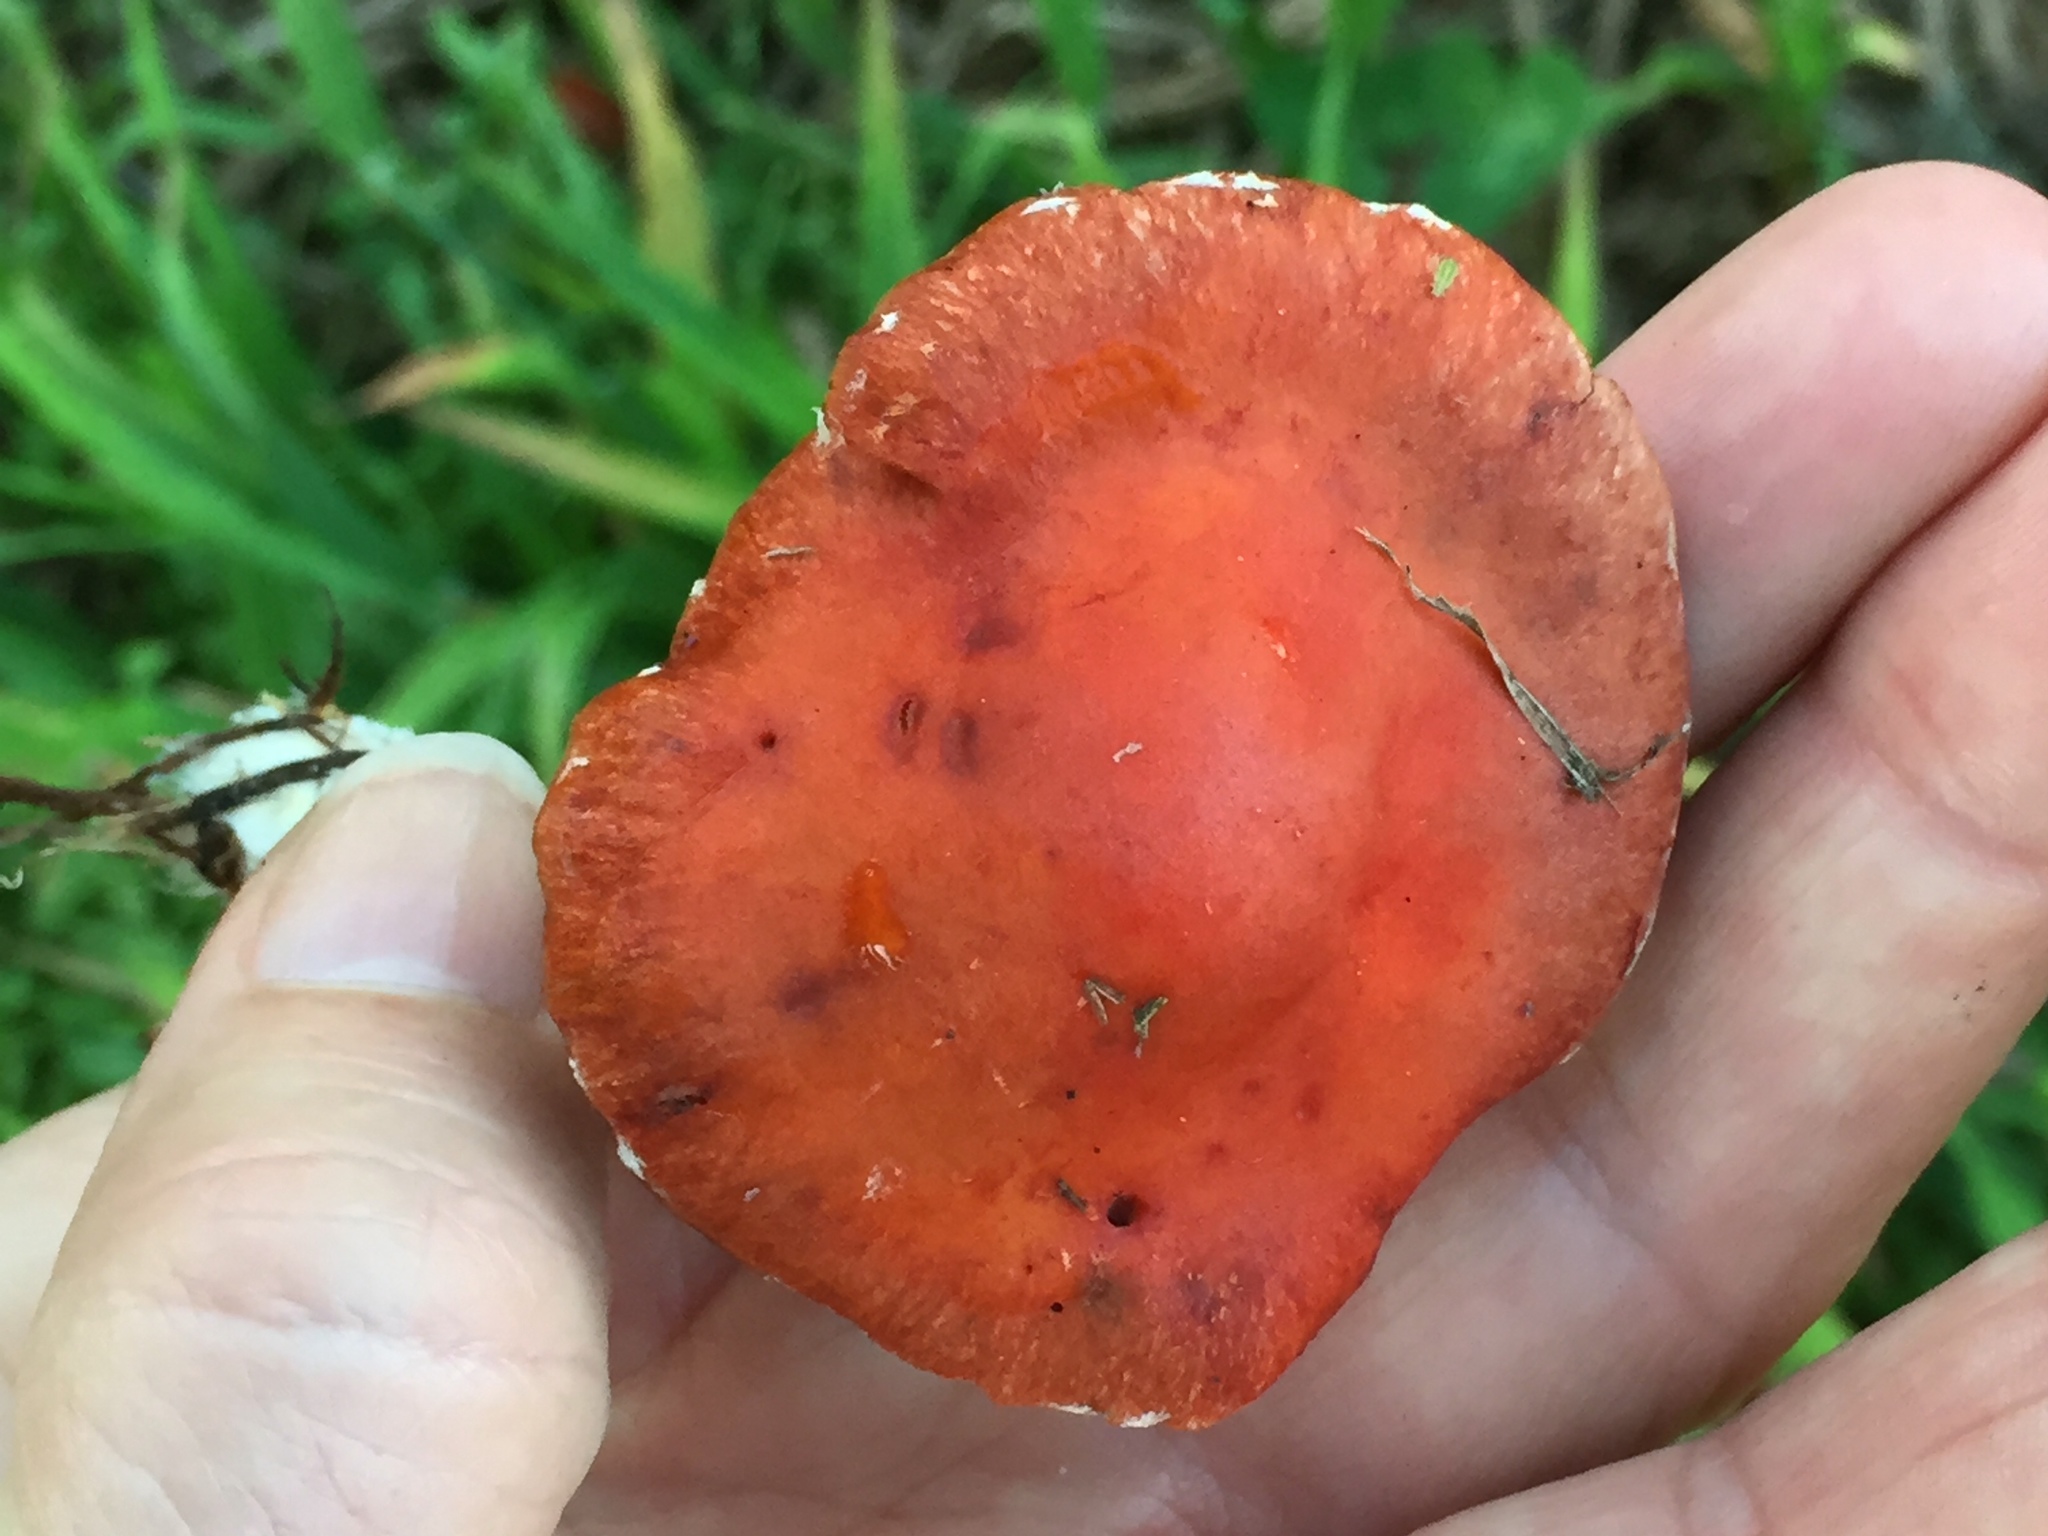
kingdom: Fungi
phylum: Basidiomycota
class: Agaricomycetes
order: Agaricales
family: Strophariaceae
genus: Leratiomyces
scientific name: Leratiomyces ceres
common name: Redlead roundhead
